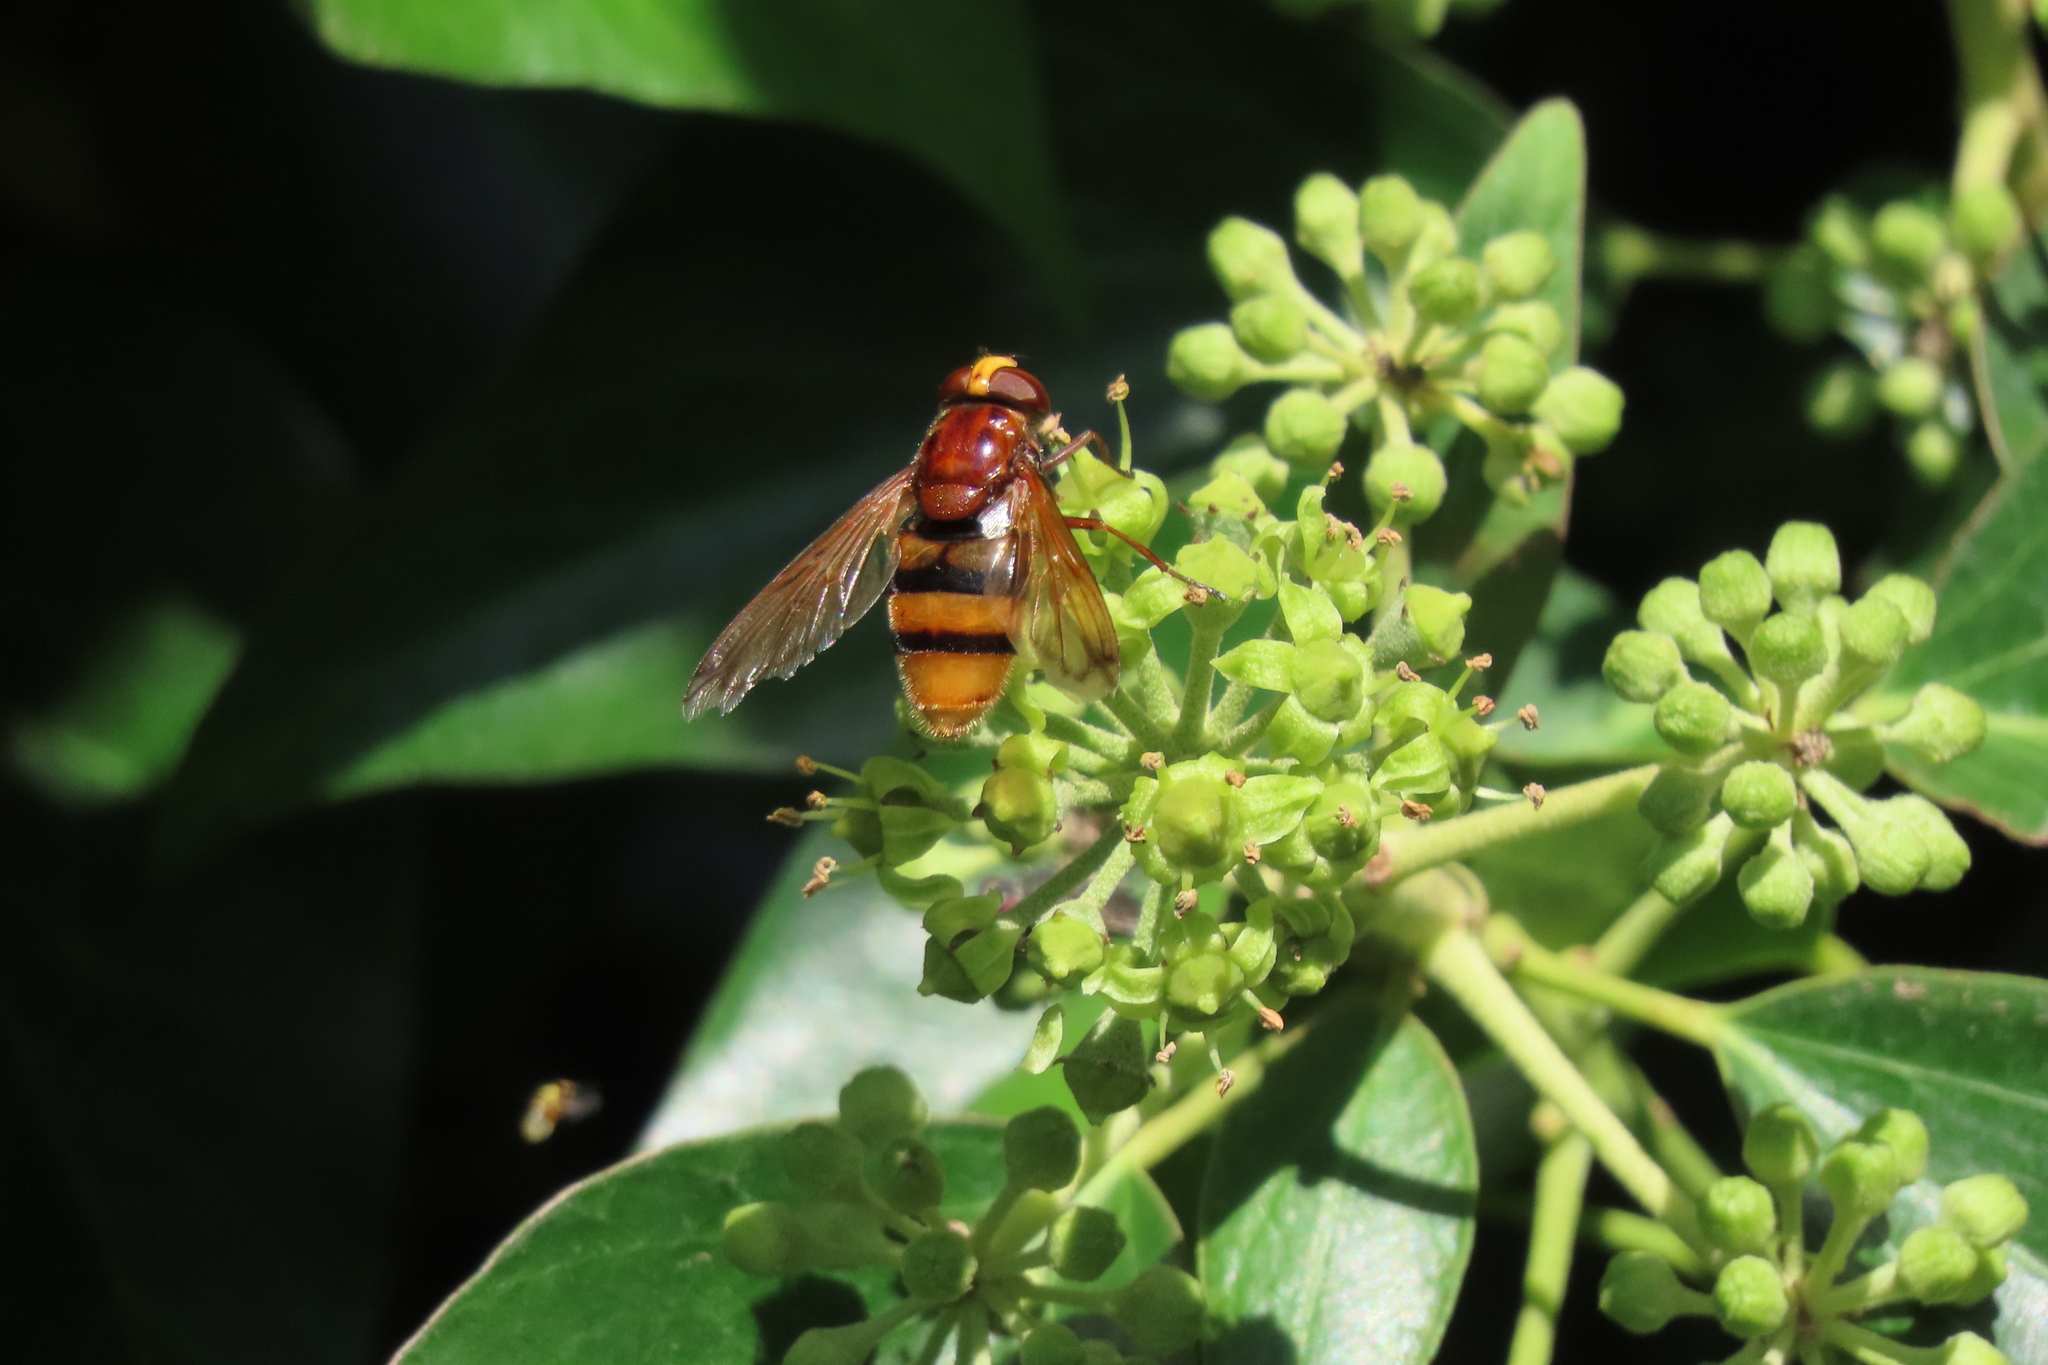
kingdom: Animalia
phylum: Arthropoda
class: Insecta
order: Diptera
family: Syrphidae
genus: Volucella
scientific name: Volucella zonaria
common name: Hornet hoverfly
